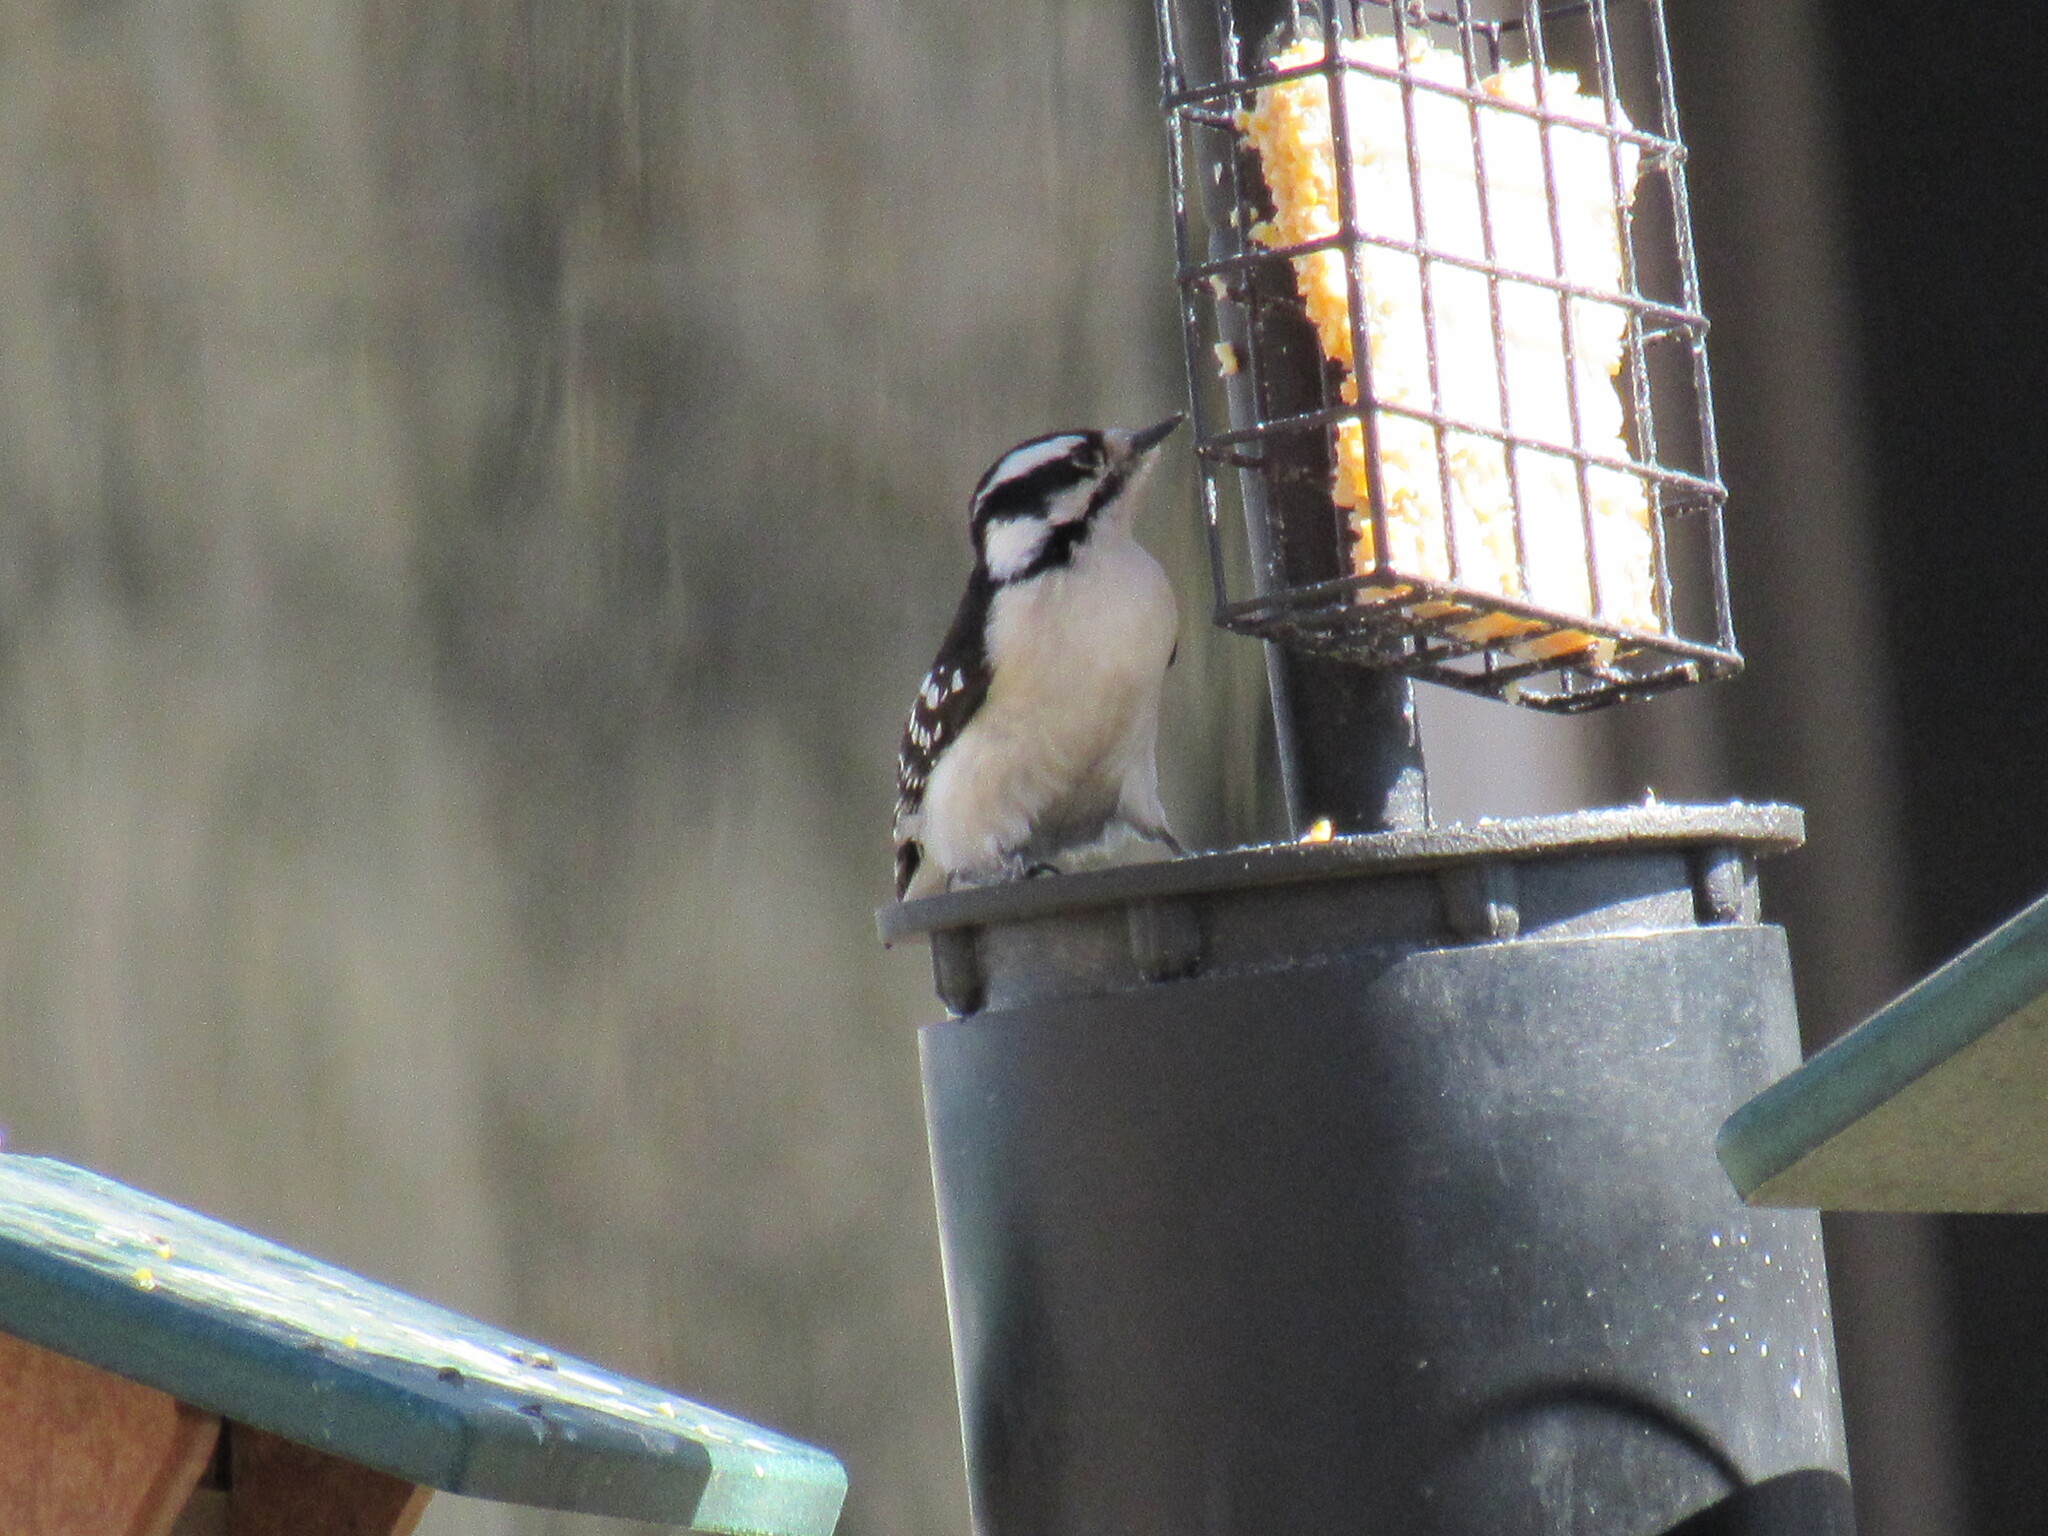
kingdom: Animalia
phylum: Chordata
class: Aves
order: Piciformes
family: Picidae
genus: Dryobates
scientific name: Dryobates pubescens
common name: Downy woodpecker
